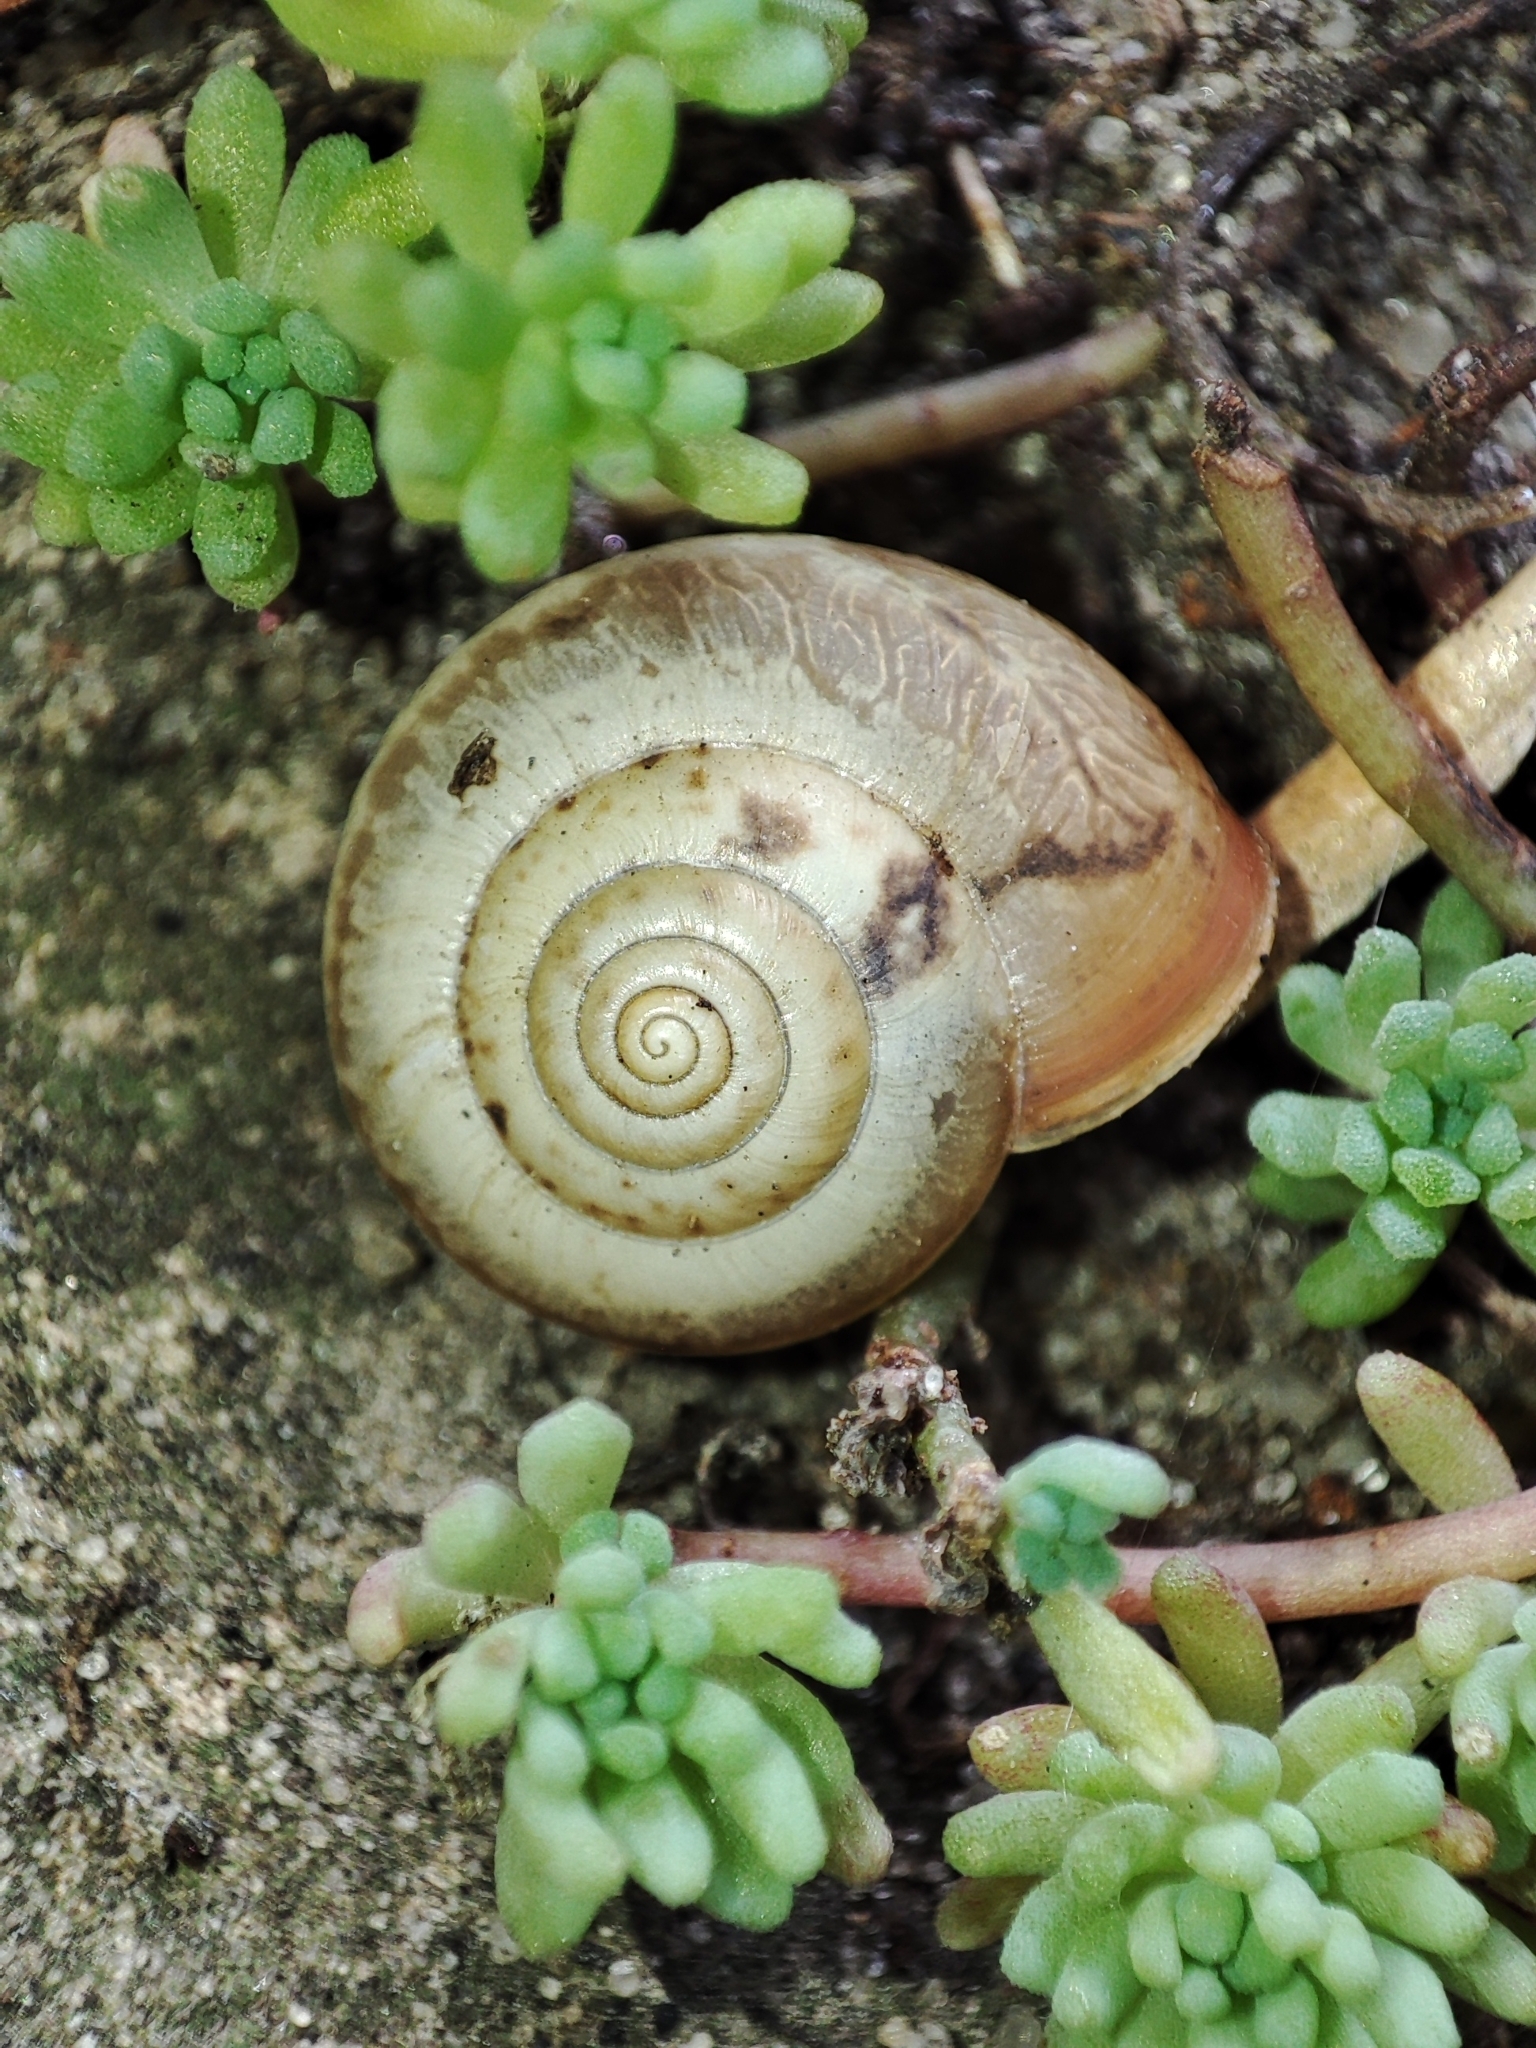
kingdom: Animalia
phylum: Mollusca
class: Gastropoda
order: Stylommatophora
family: Hygromiidae
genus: Monacha
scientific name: Monacha cartusiana
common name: Carthusian snail
